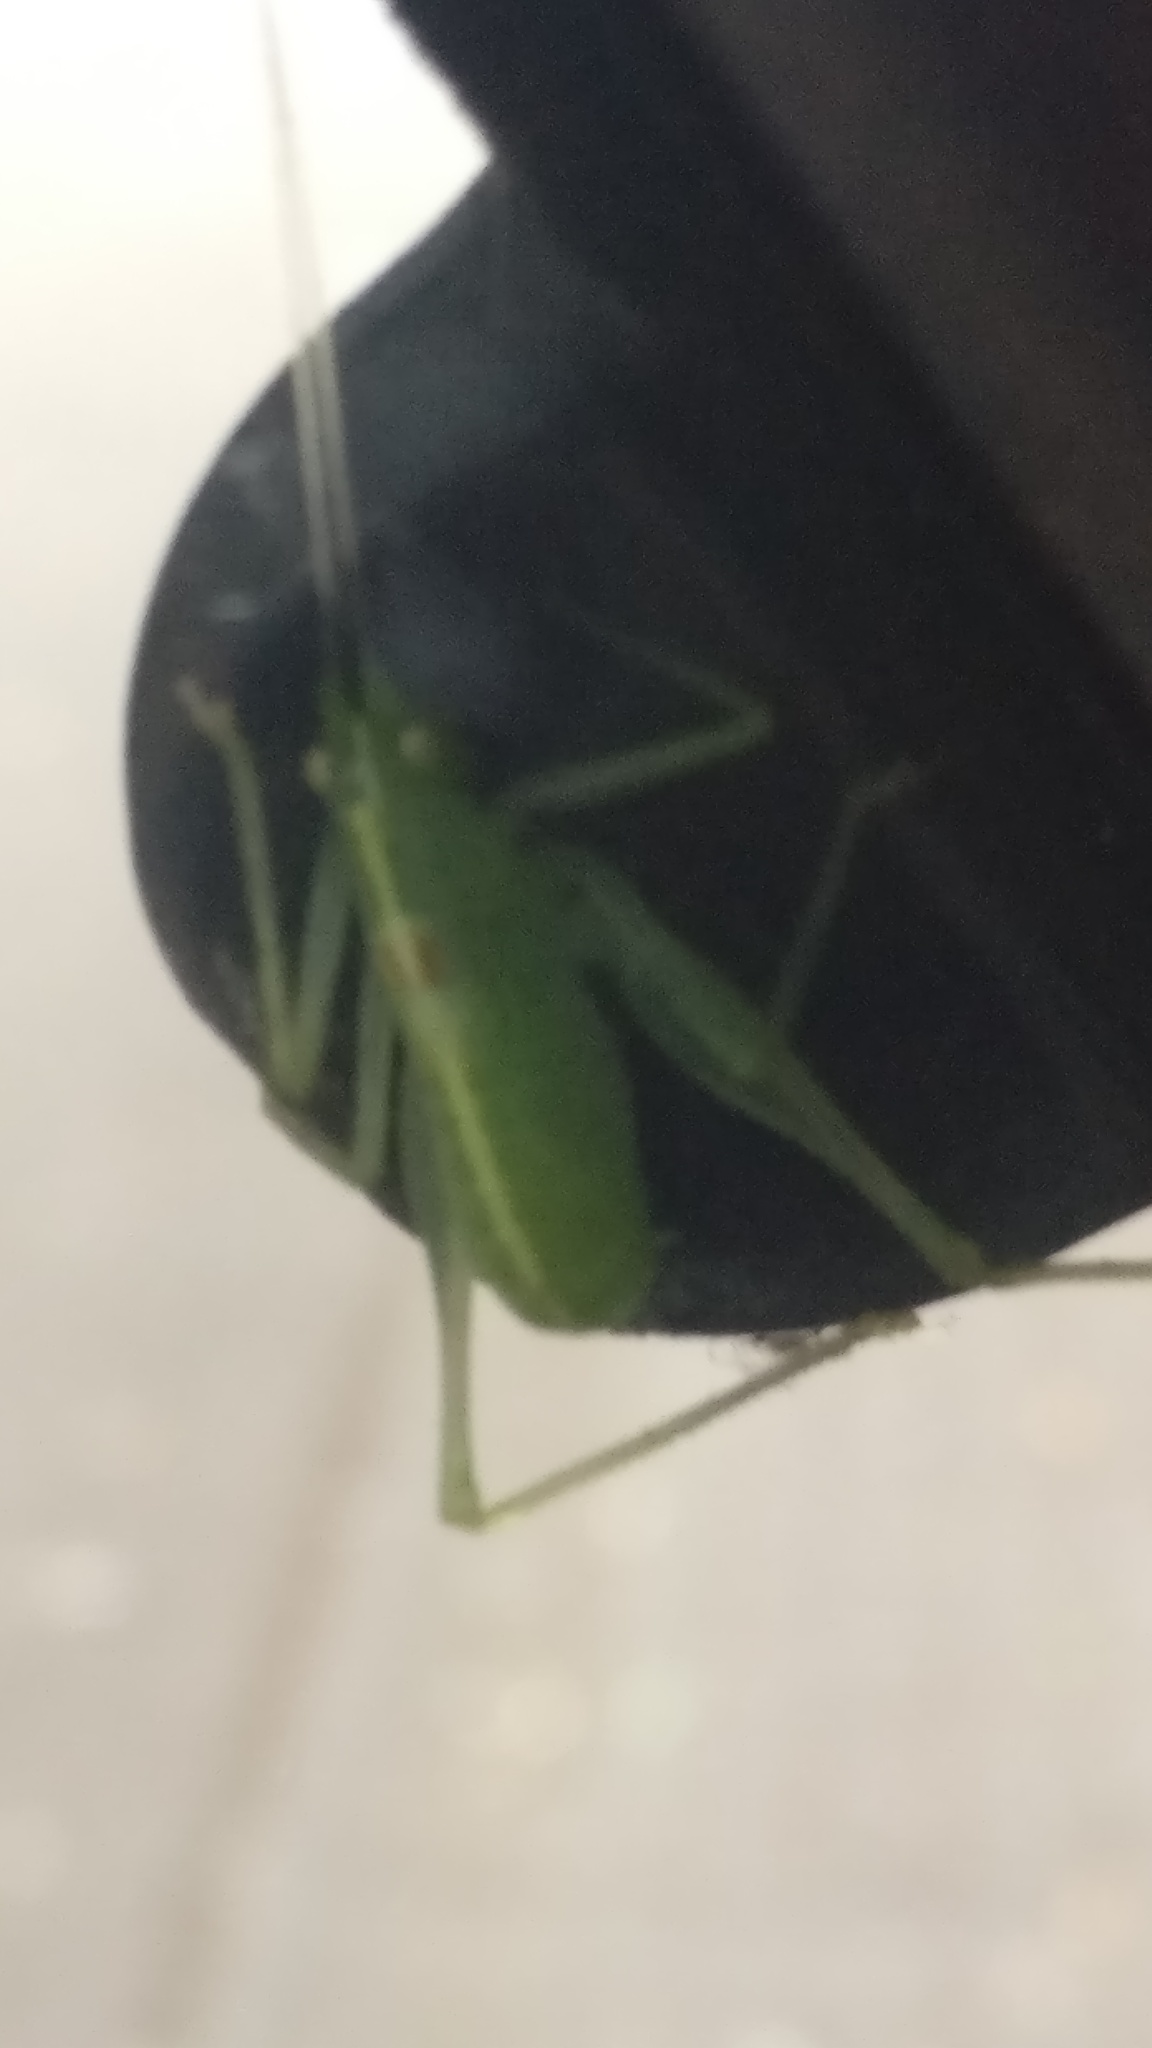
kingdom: Animalia
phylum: Arthropoda
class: Insecta
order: Orthoptera
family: Tettigoniidae
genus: Meconema
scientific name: Meconema meridionale
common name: Southern oak bush-cricket
